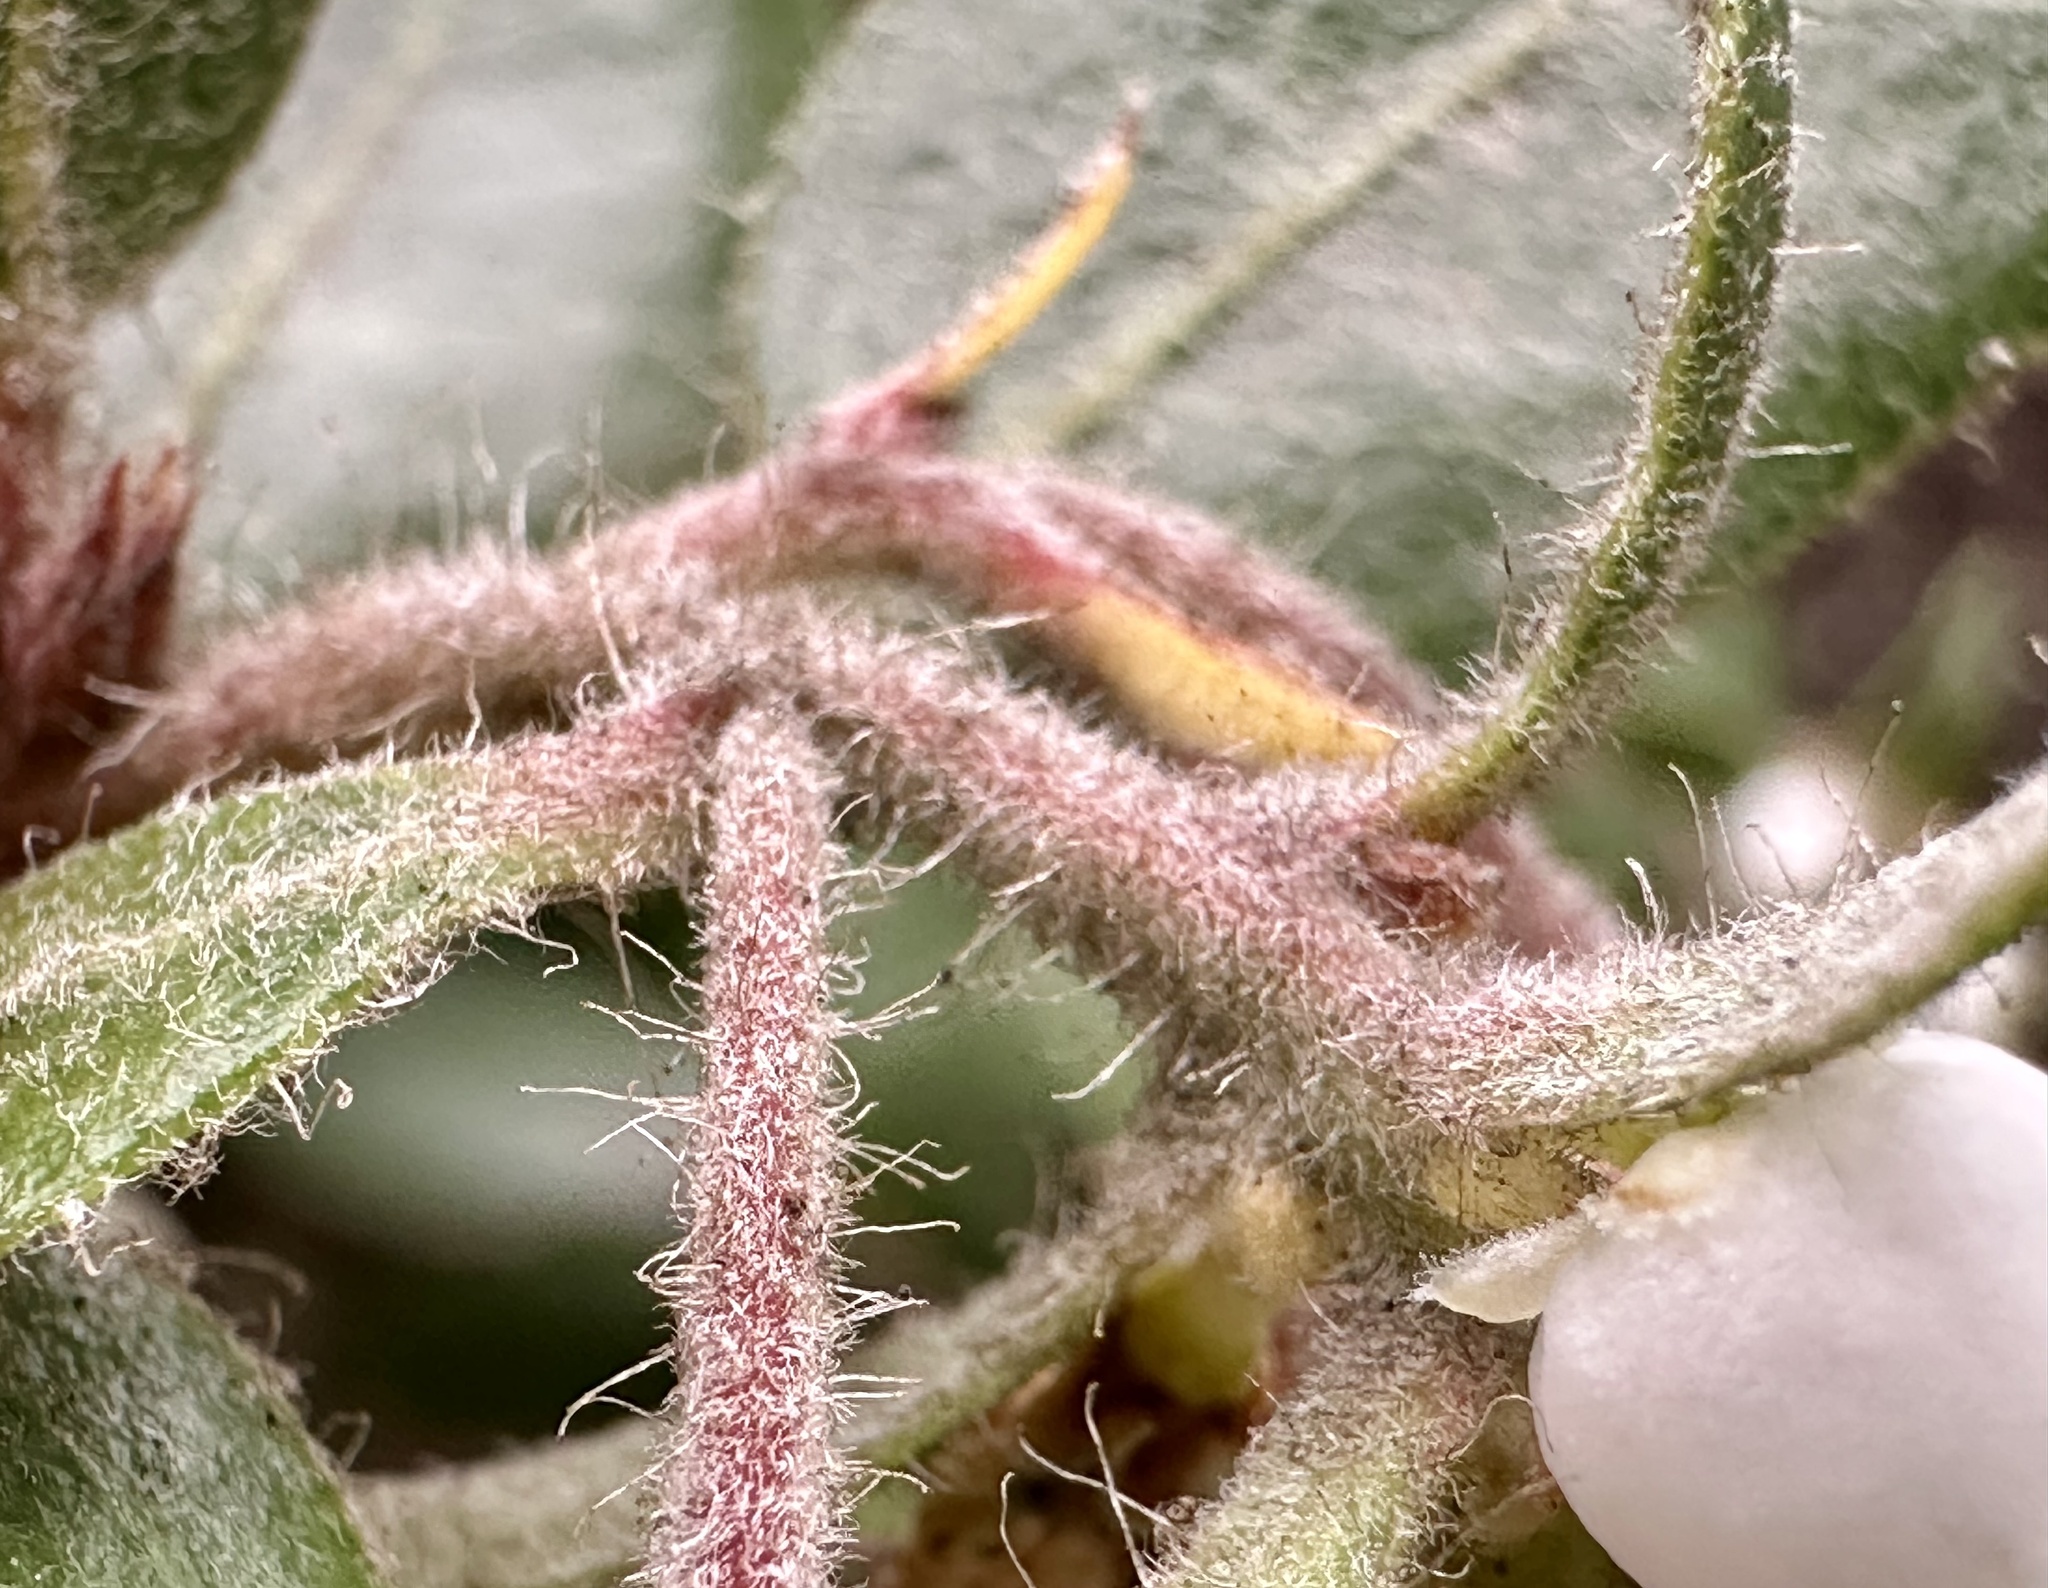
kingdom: Plantae
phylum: Tracheophyta
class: Magnoliopsida
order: Ericales
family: Ericaceae
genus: Arctostaphylos
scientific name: Arctostaphylos tomentosa
